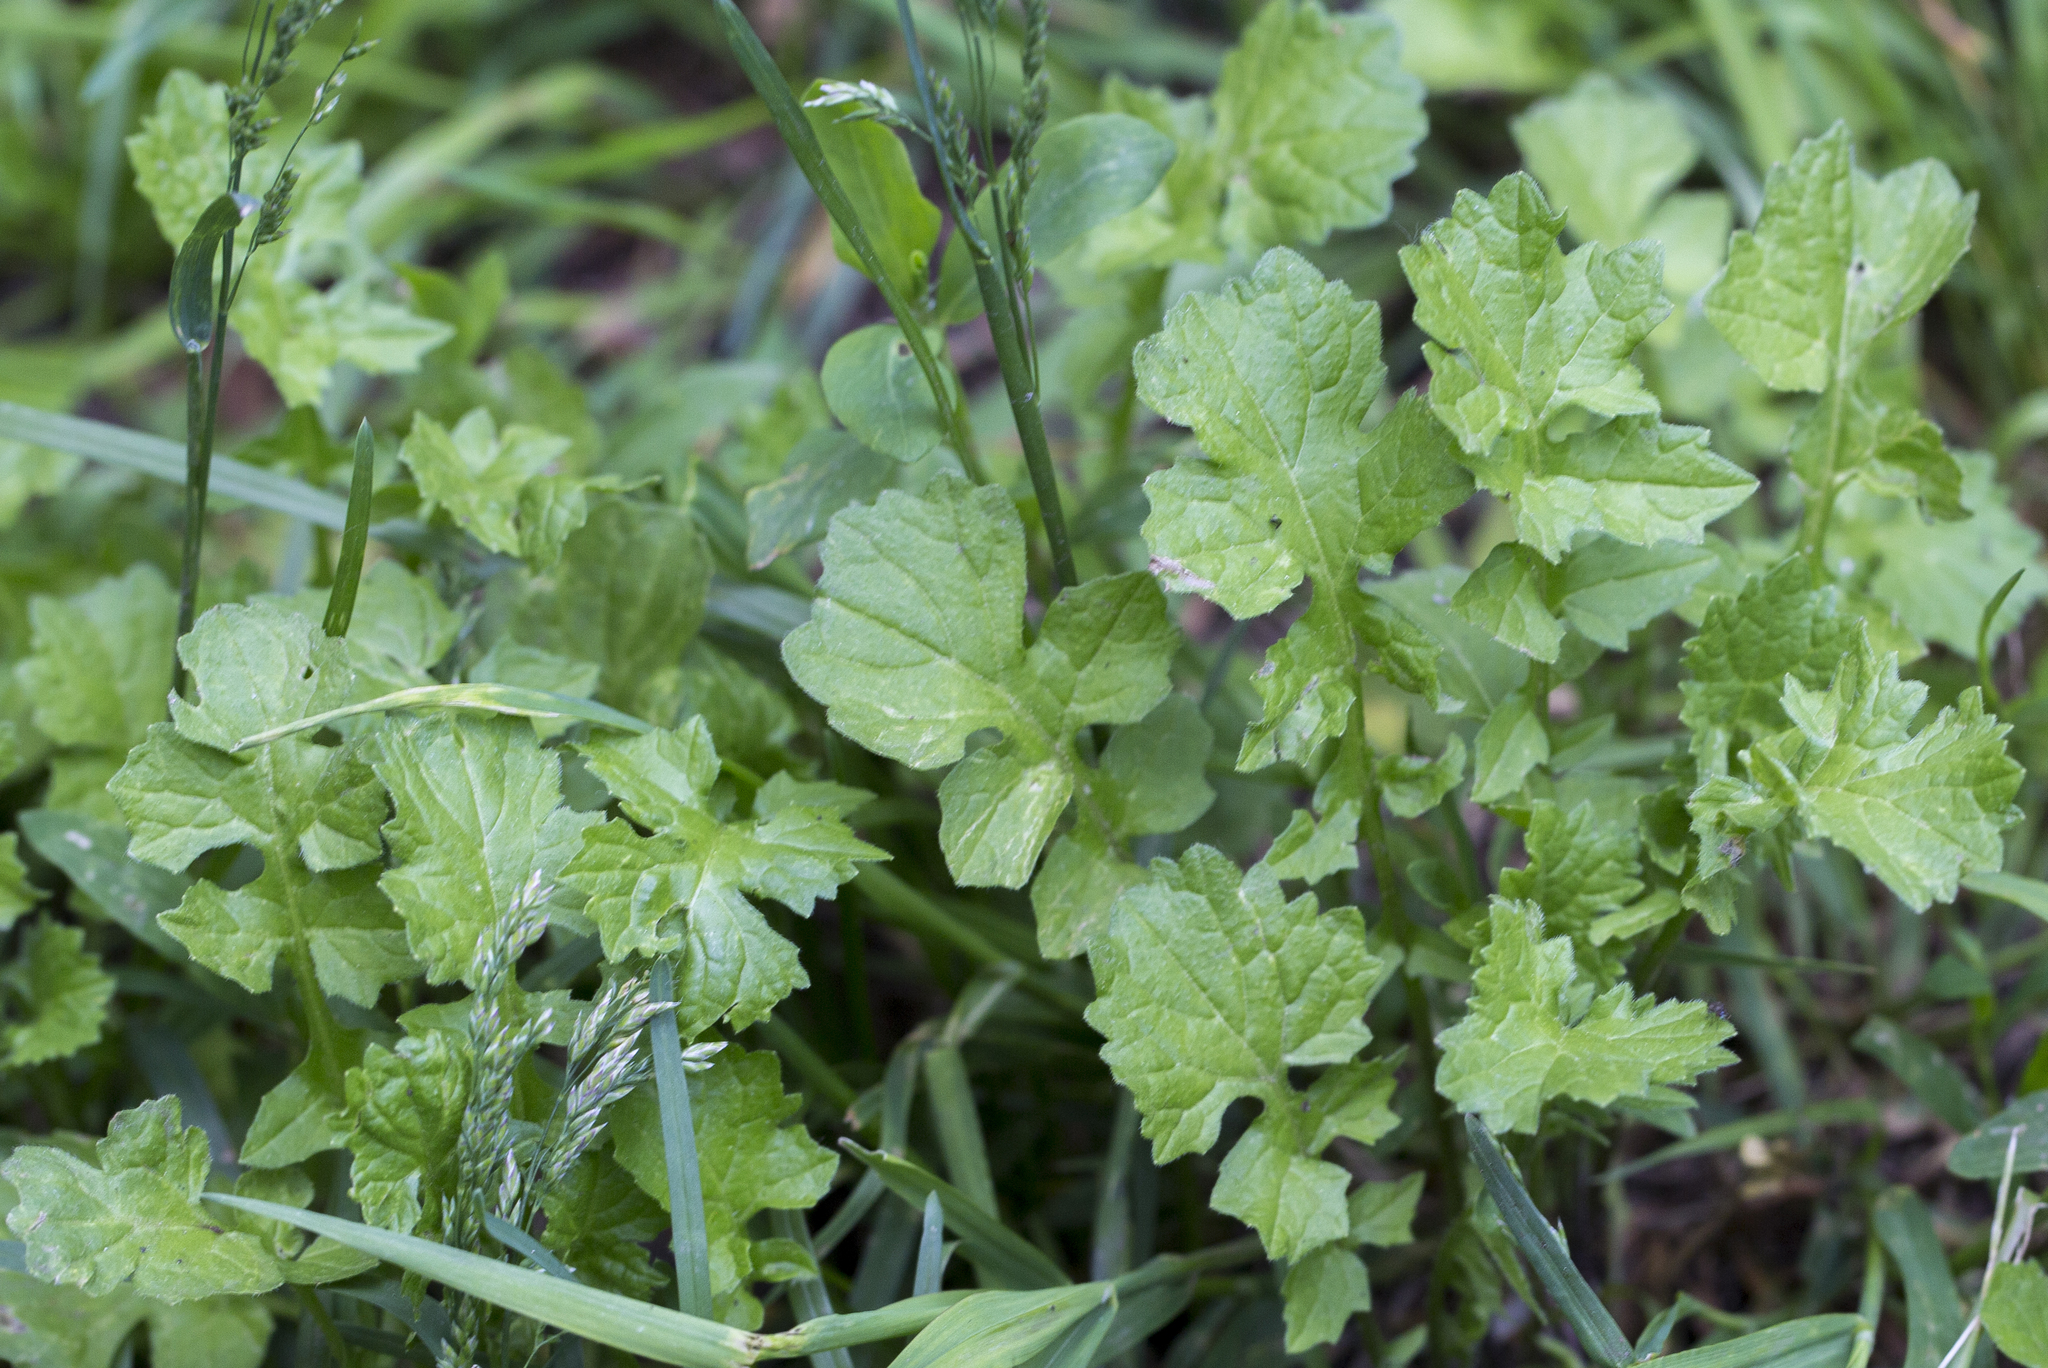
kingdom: Plantae
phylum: Tracheophyta
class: Magnoliopsida
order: Brassicales
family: Brassicaceae
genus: Sisymbrium
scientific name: Sisymbrium officinale
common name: Hedge mustard
